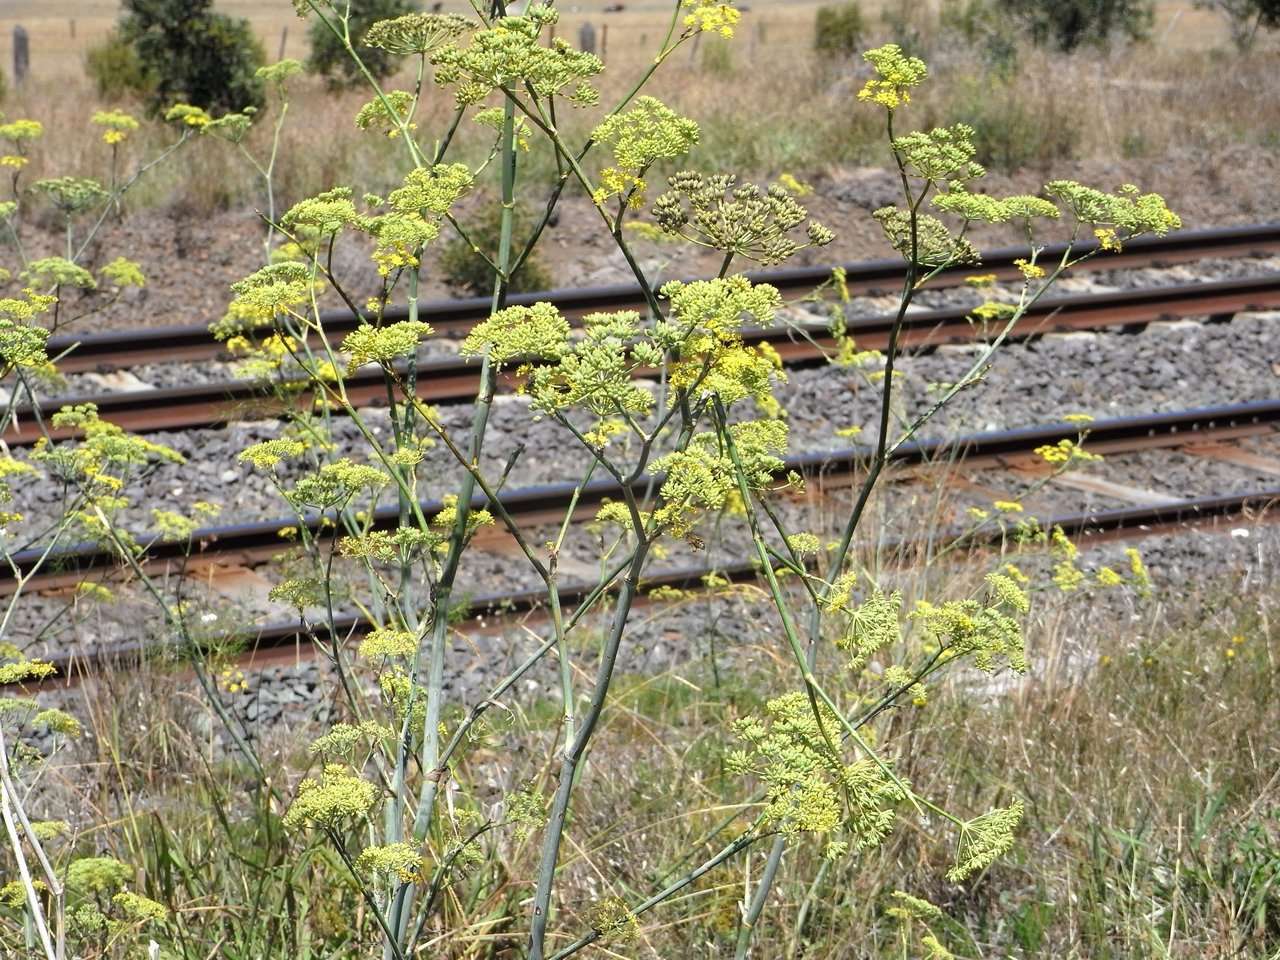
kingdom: Plantae
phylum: Tracheophyta
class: Magnoliopsida
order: Apiales
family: Apiaceae
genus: Foeniculum
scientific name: Foeniculum vulgare
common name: Fennel
